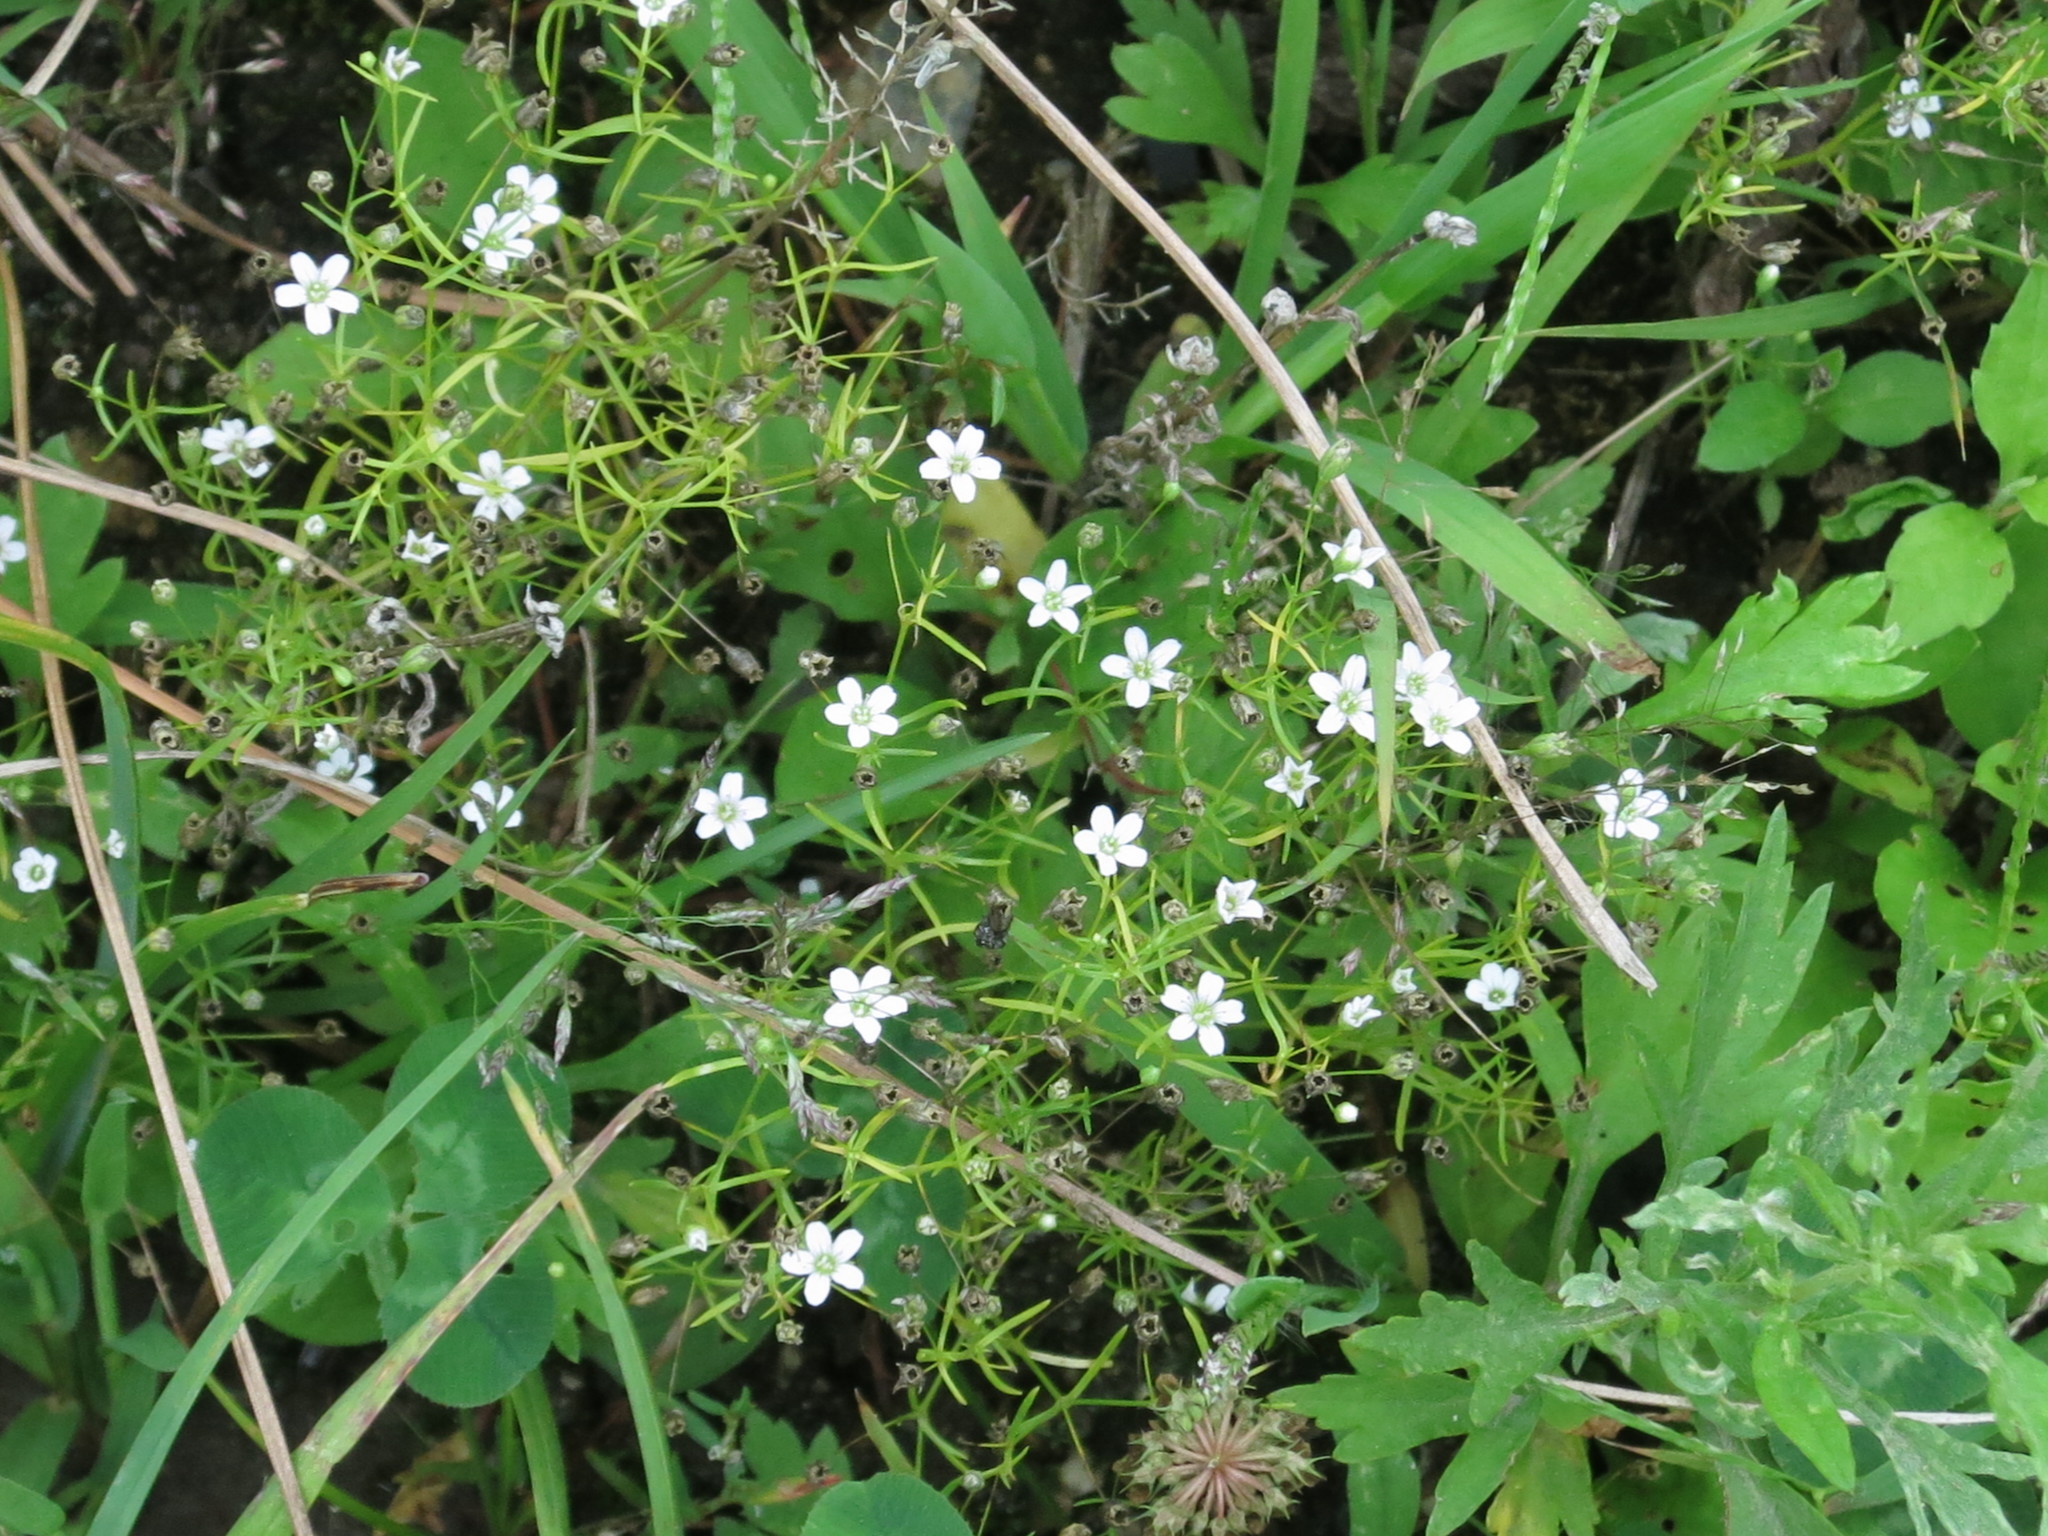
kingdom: Plantae
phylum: Tracheophyta
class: Magnoliopsida
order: Caryophyllales
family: Caryophyllaceae
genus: Psammophiliella
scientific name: Psammophiliella muralis
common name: Cushion baby's-breath
